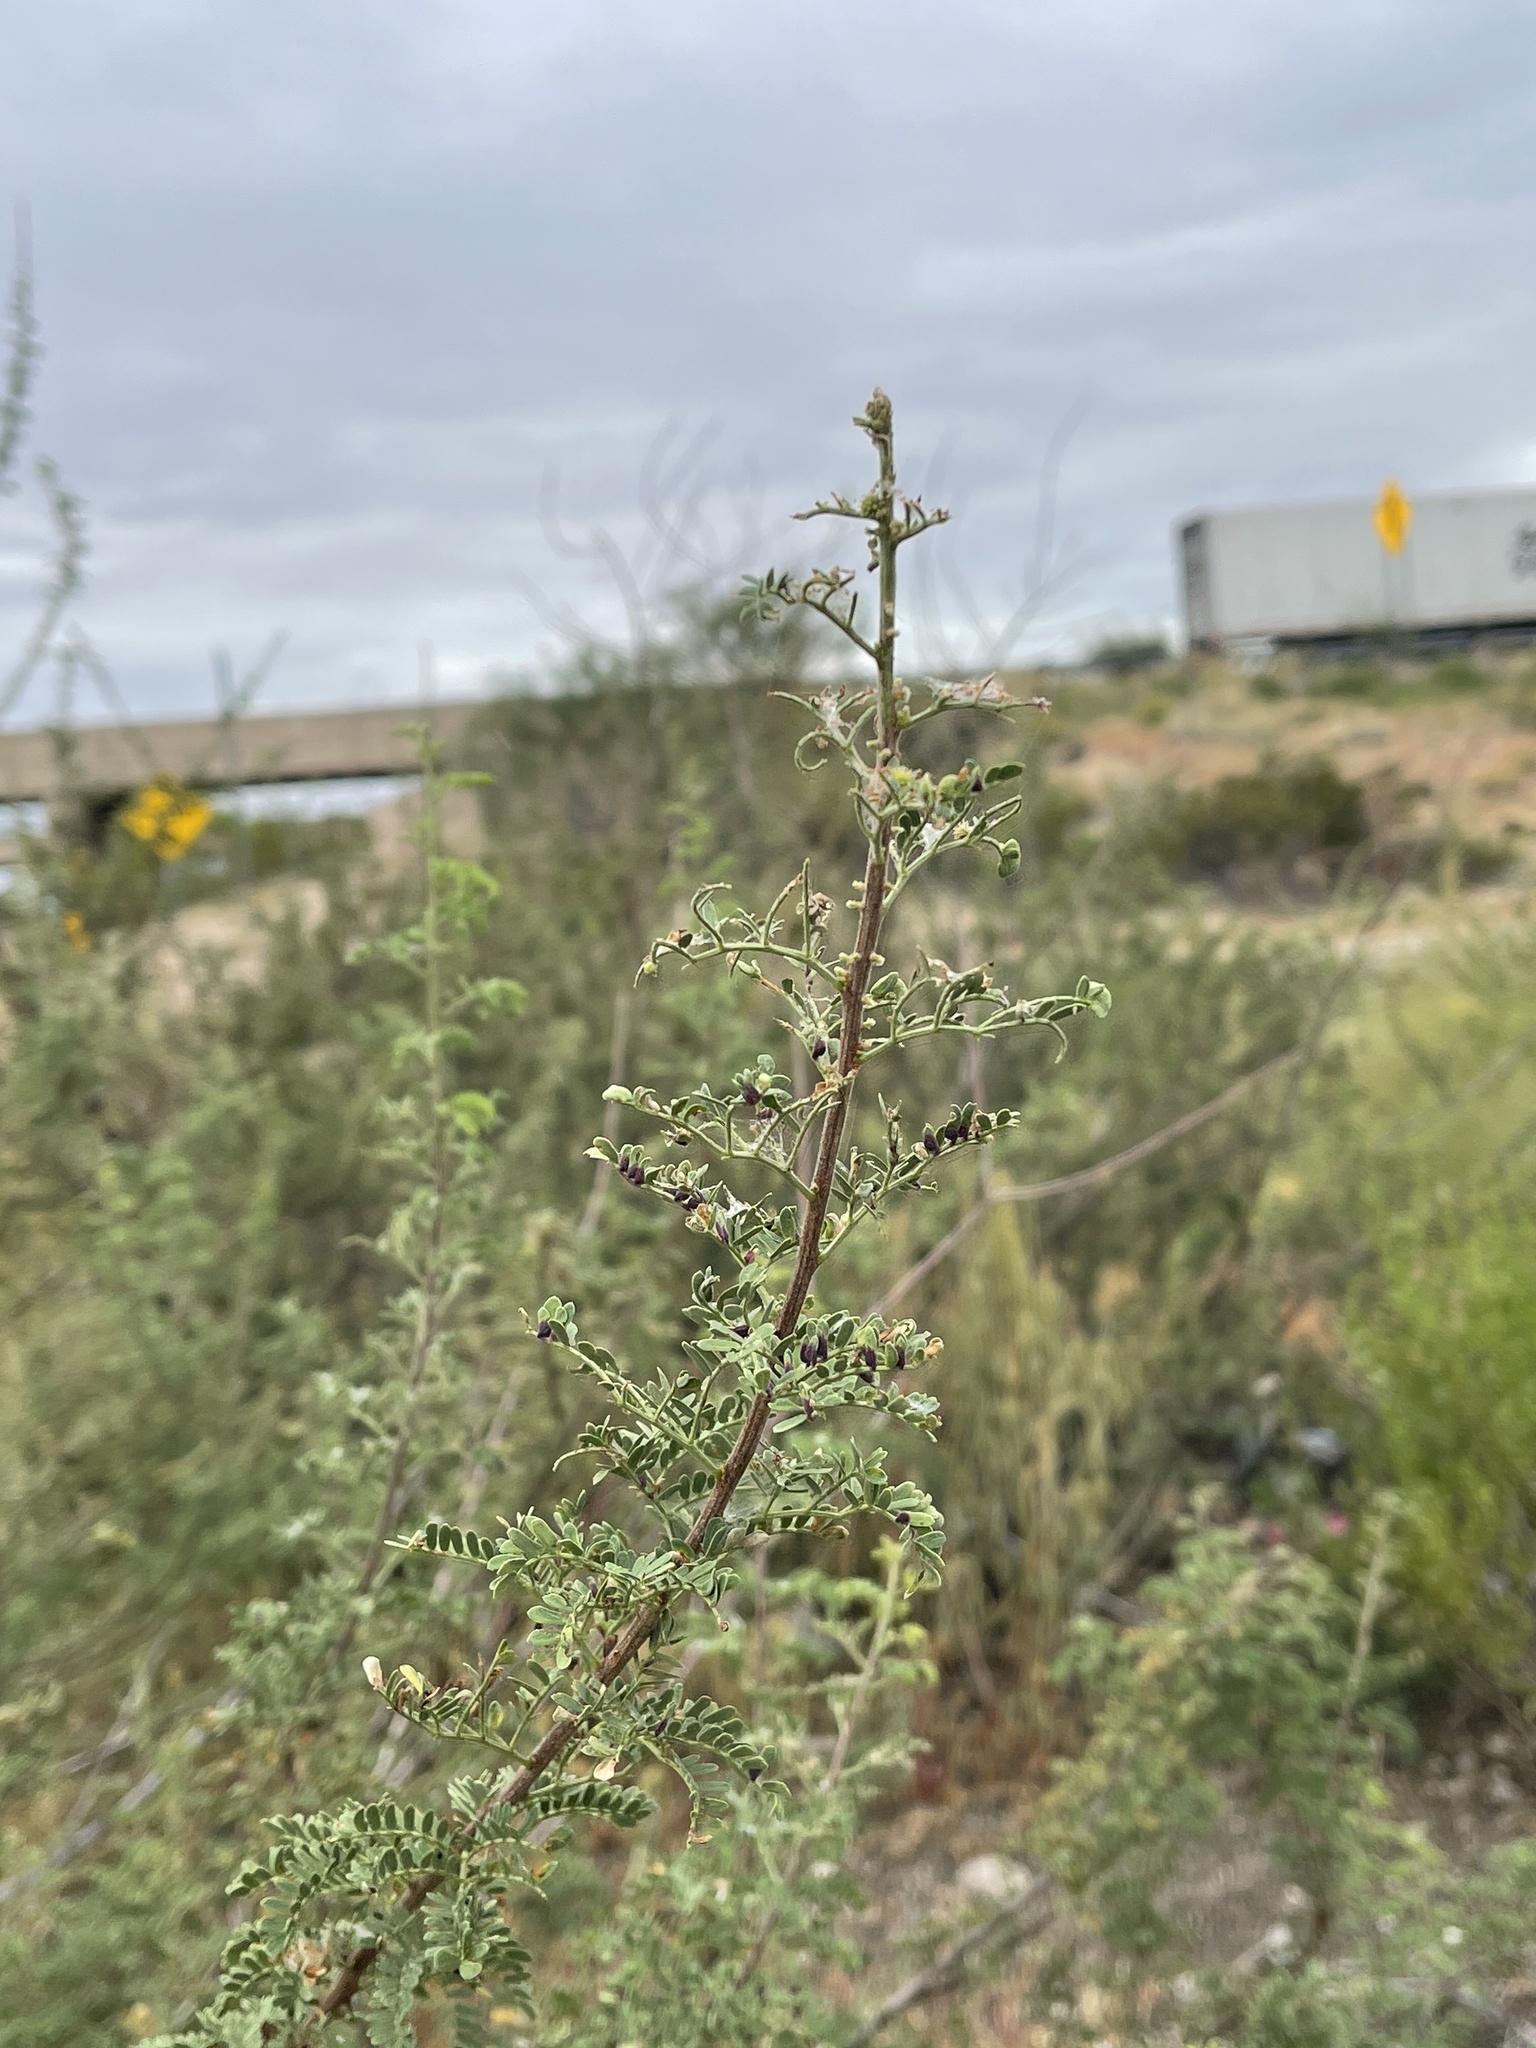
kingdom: Plantae
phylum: Tracheophyta
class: Magnoliopsida
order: Fabales
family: Fabaceae
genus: Senegalia
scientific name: Senegalia greggii
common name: Texas-mimosa
